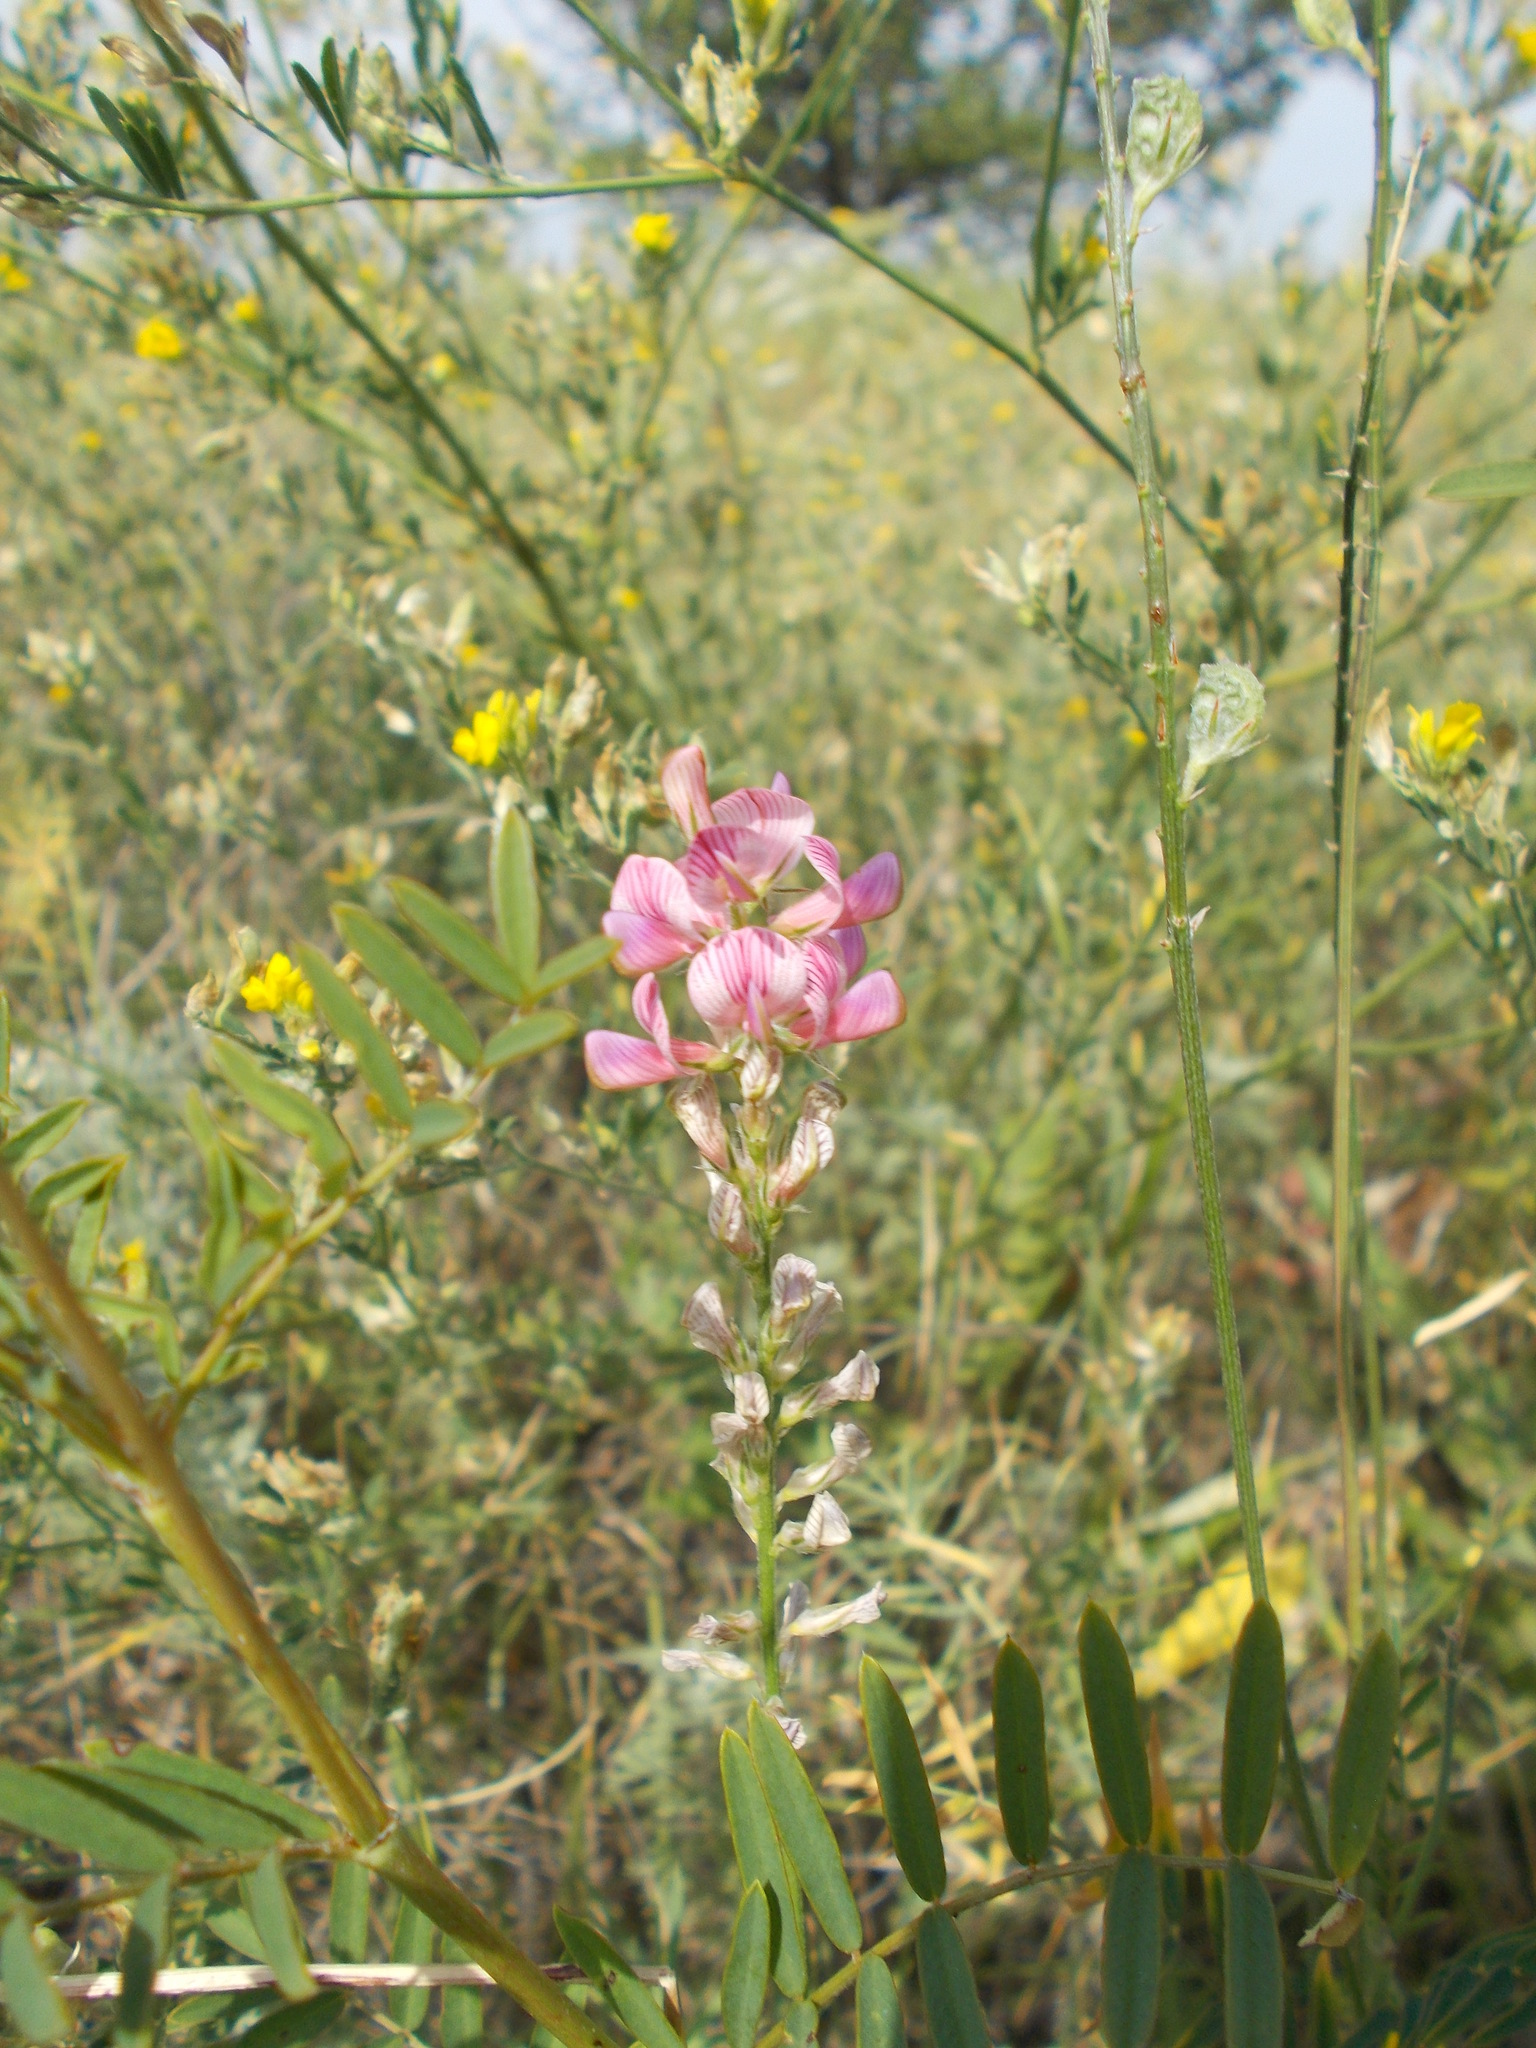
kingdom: Plantae
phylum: Tracheophyta
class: Magnoliopsida
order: Fabales
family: Fabaceae
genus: Onobrychis
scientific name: Onobrychis viciifolia
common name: Sainfoin
